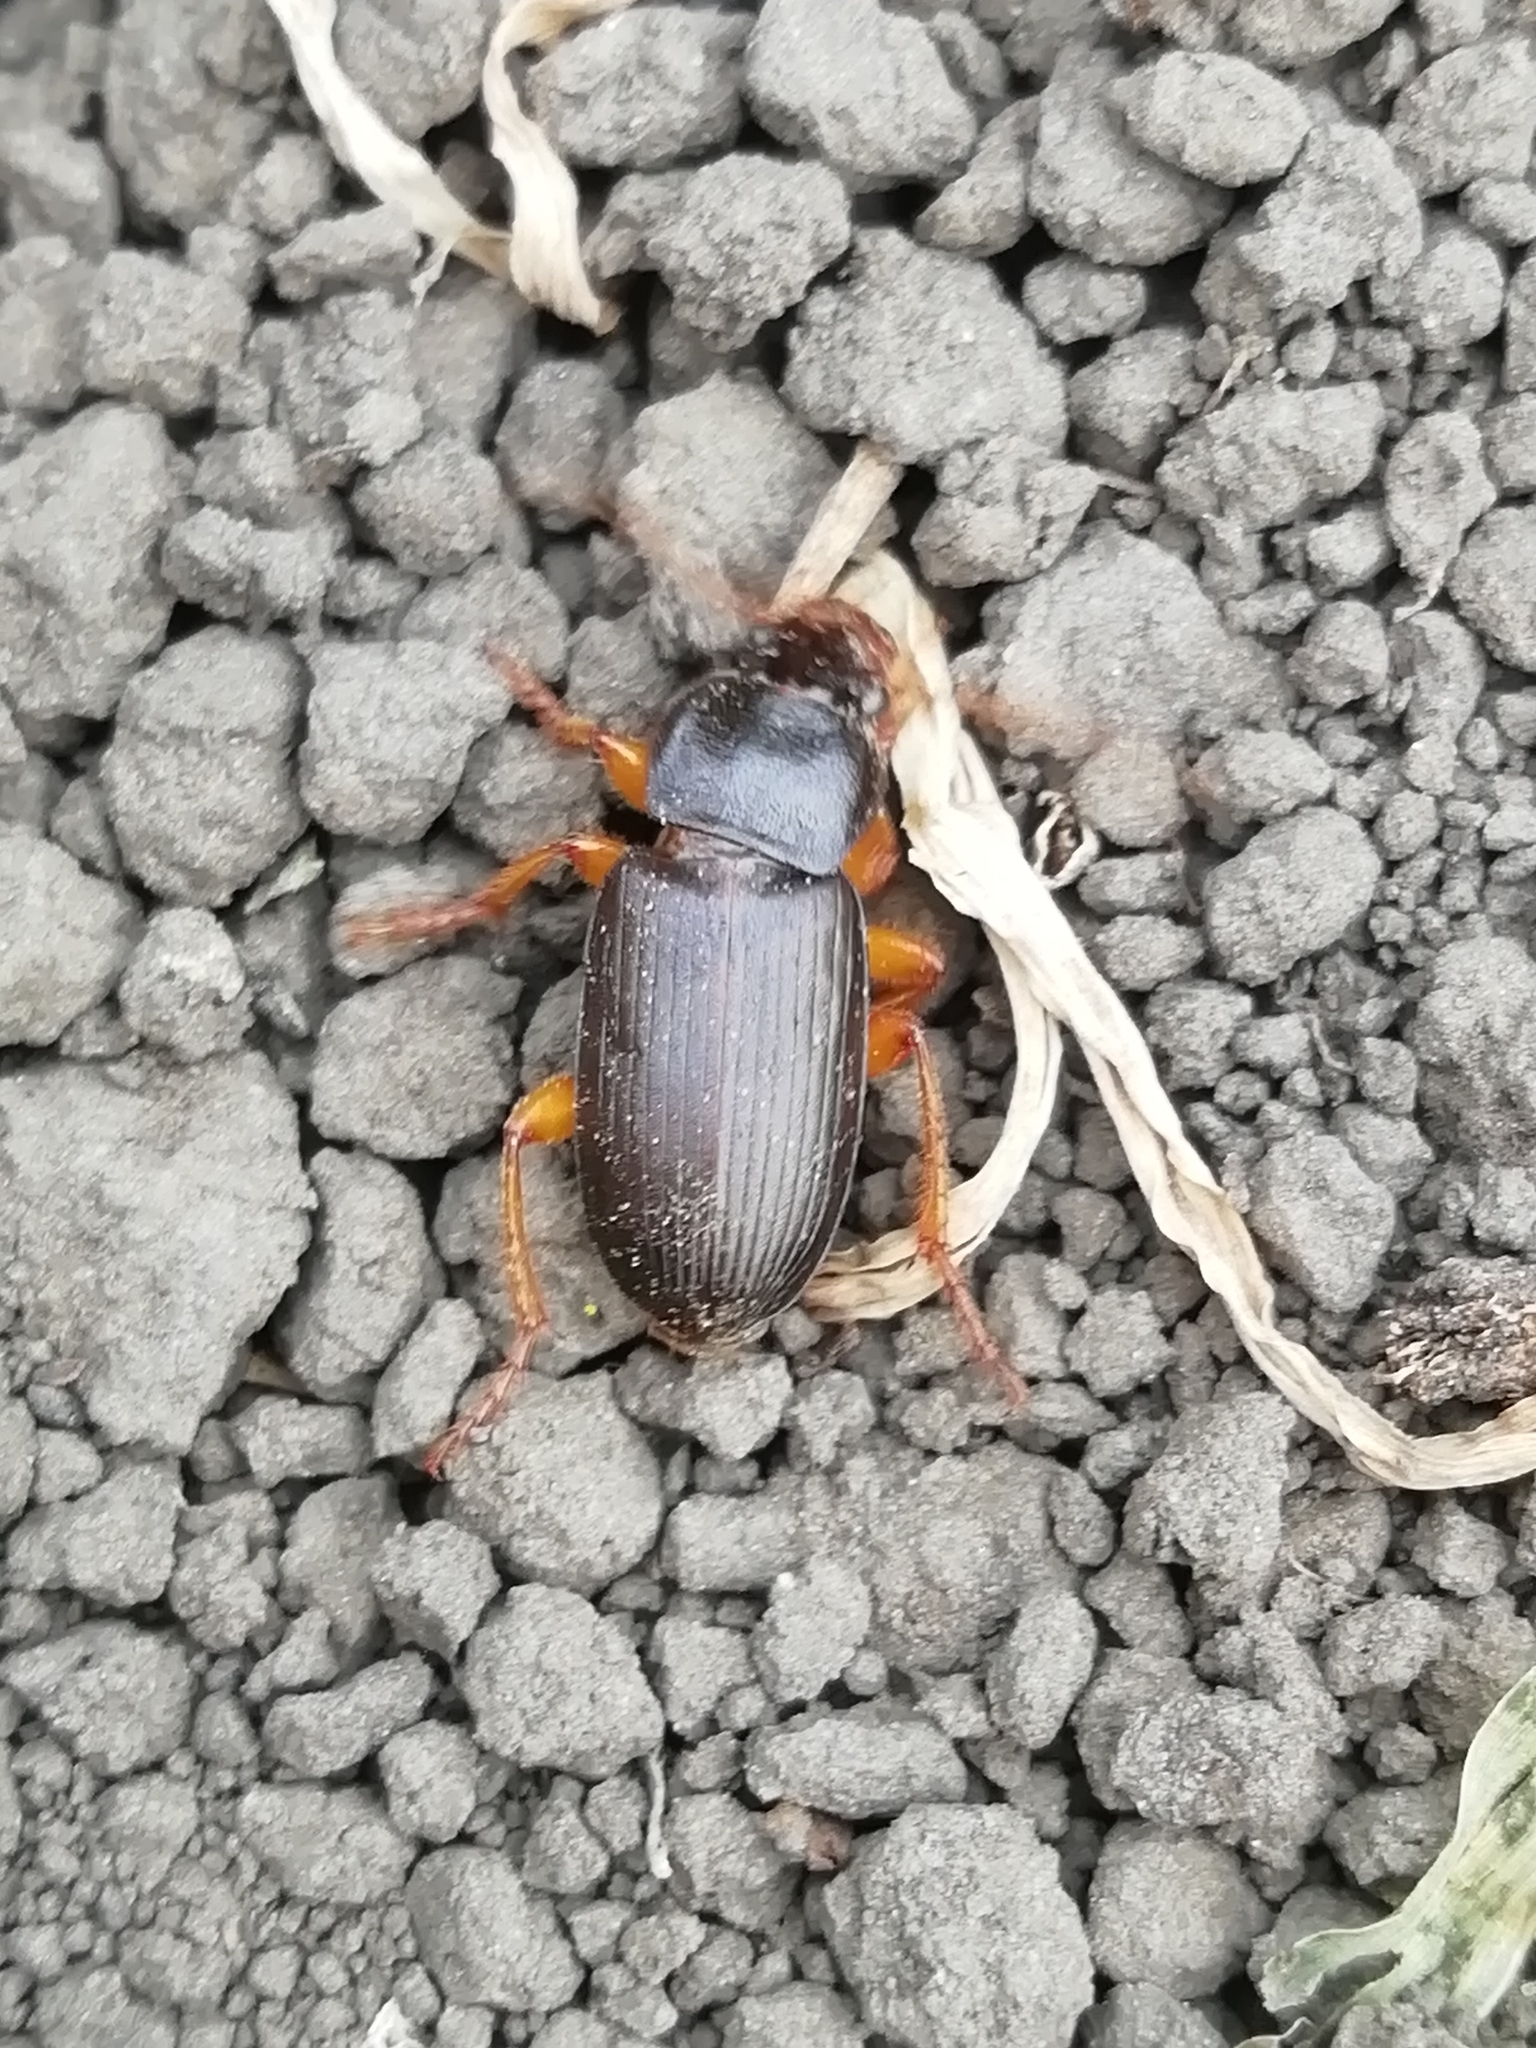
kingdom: Animalia
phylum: Arthropoda
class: Insecta
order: Coleoptera
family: Carabidae
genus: Harpalus
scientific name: Harpalus rufipes
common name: Strawberry harp ground beetle
